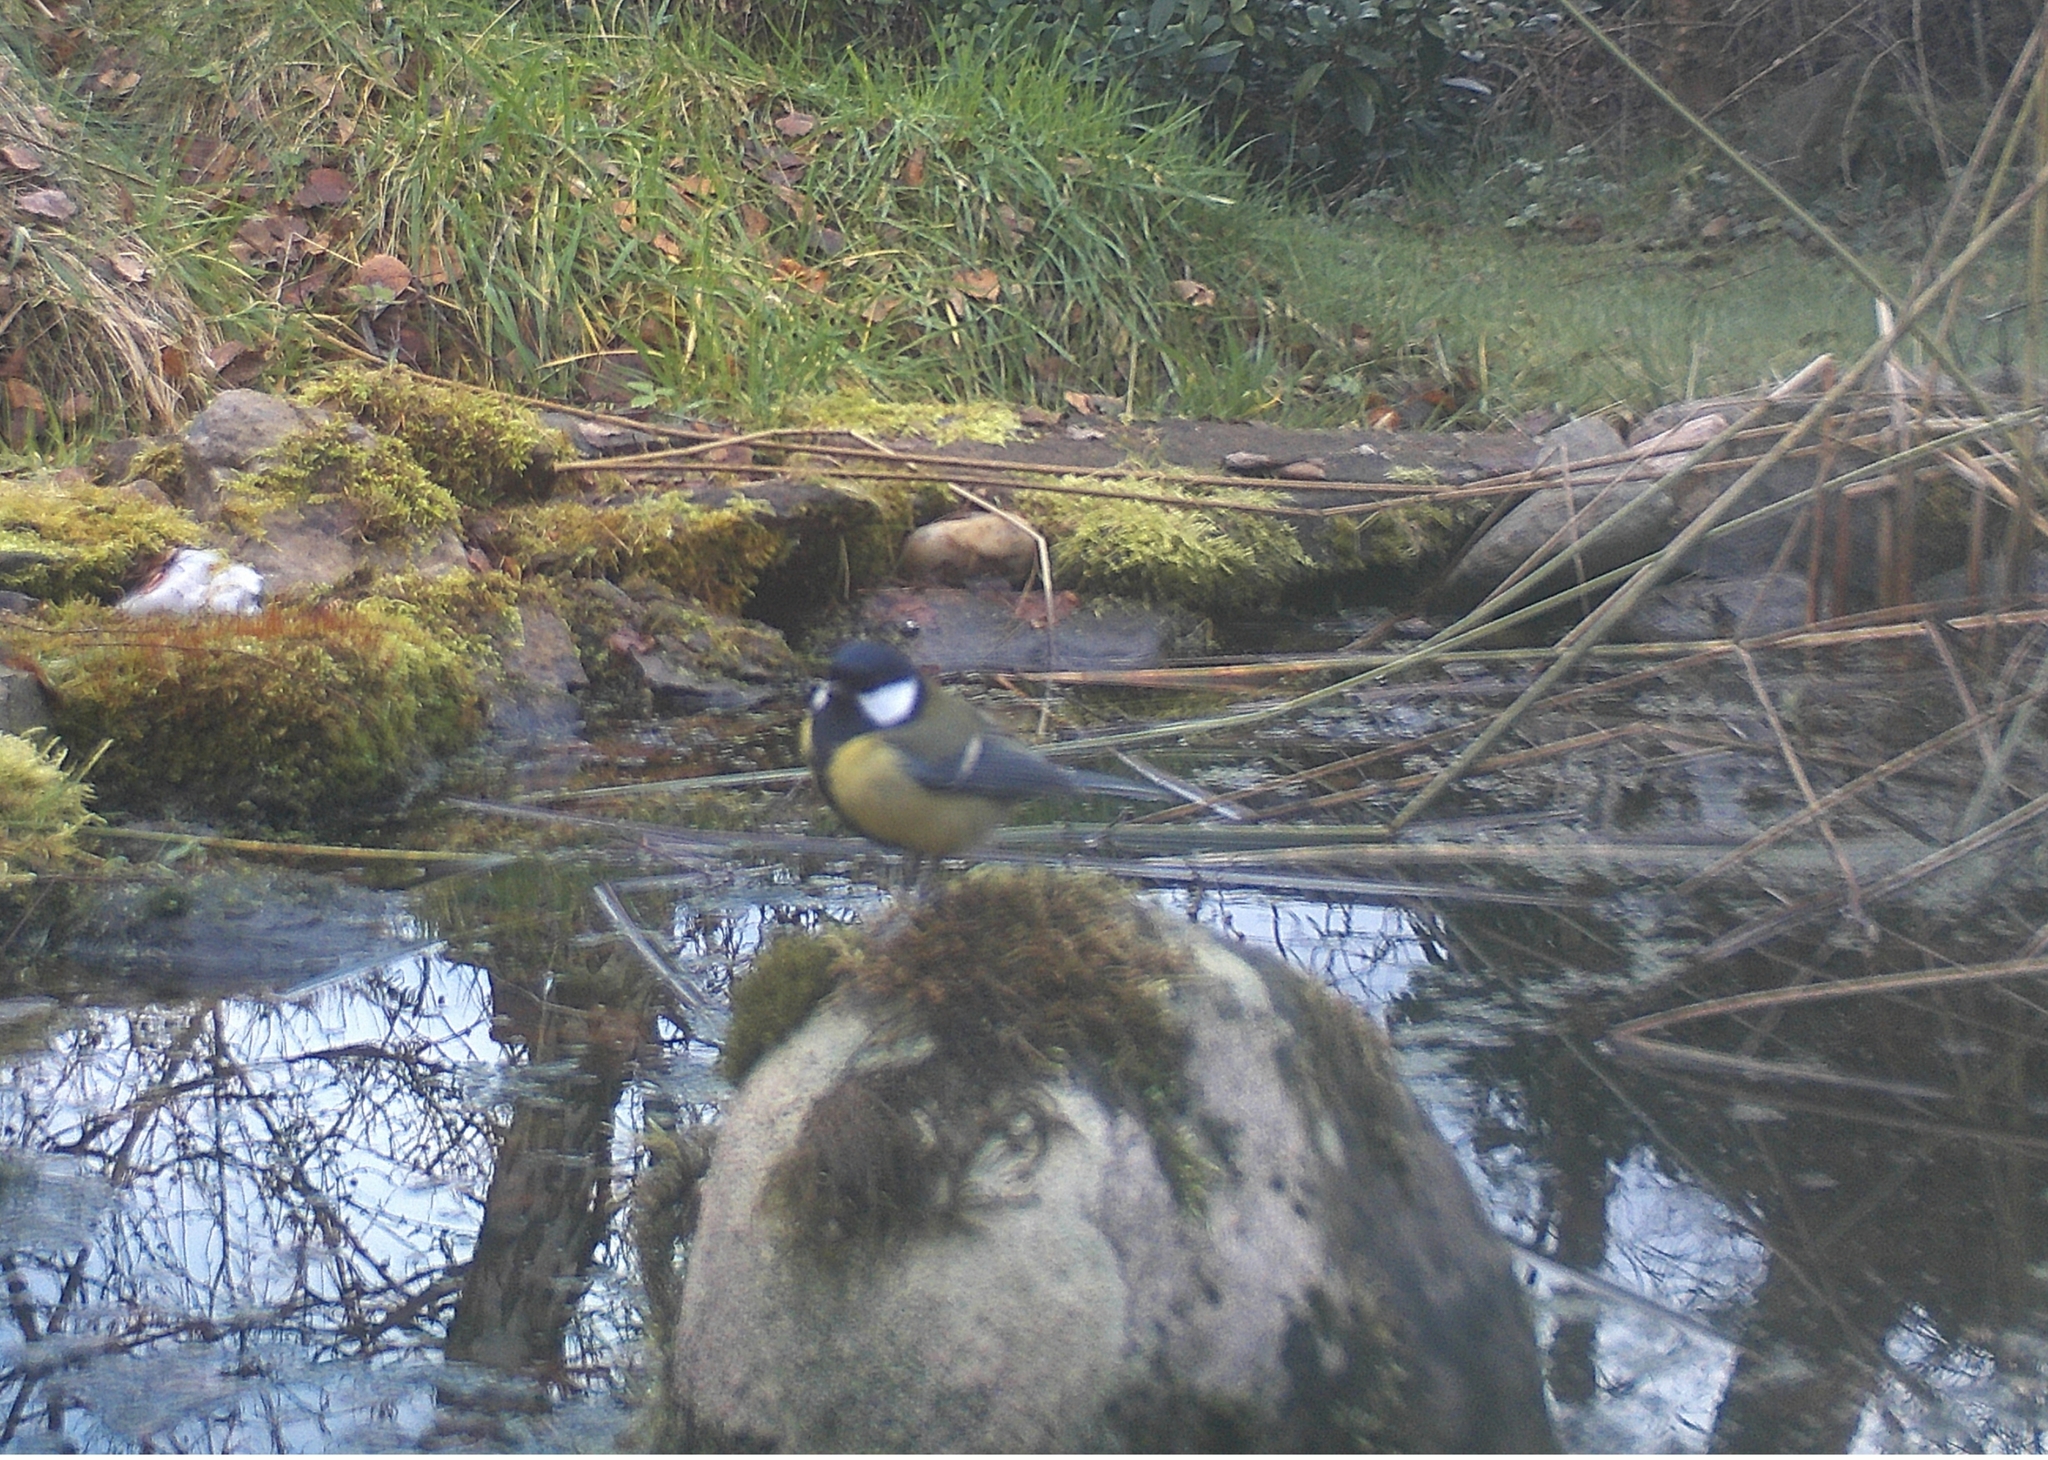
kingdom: Animalia
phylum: Chordata
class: Aves
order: Passeriformes
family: Paridae
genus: Parus
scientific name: Parus major
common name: Great tit
